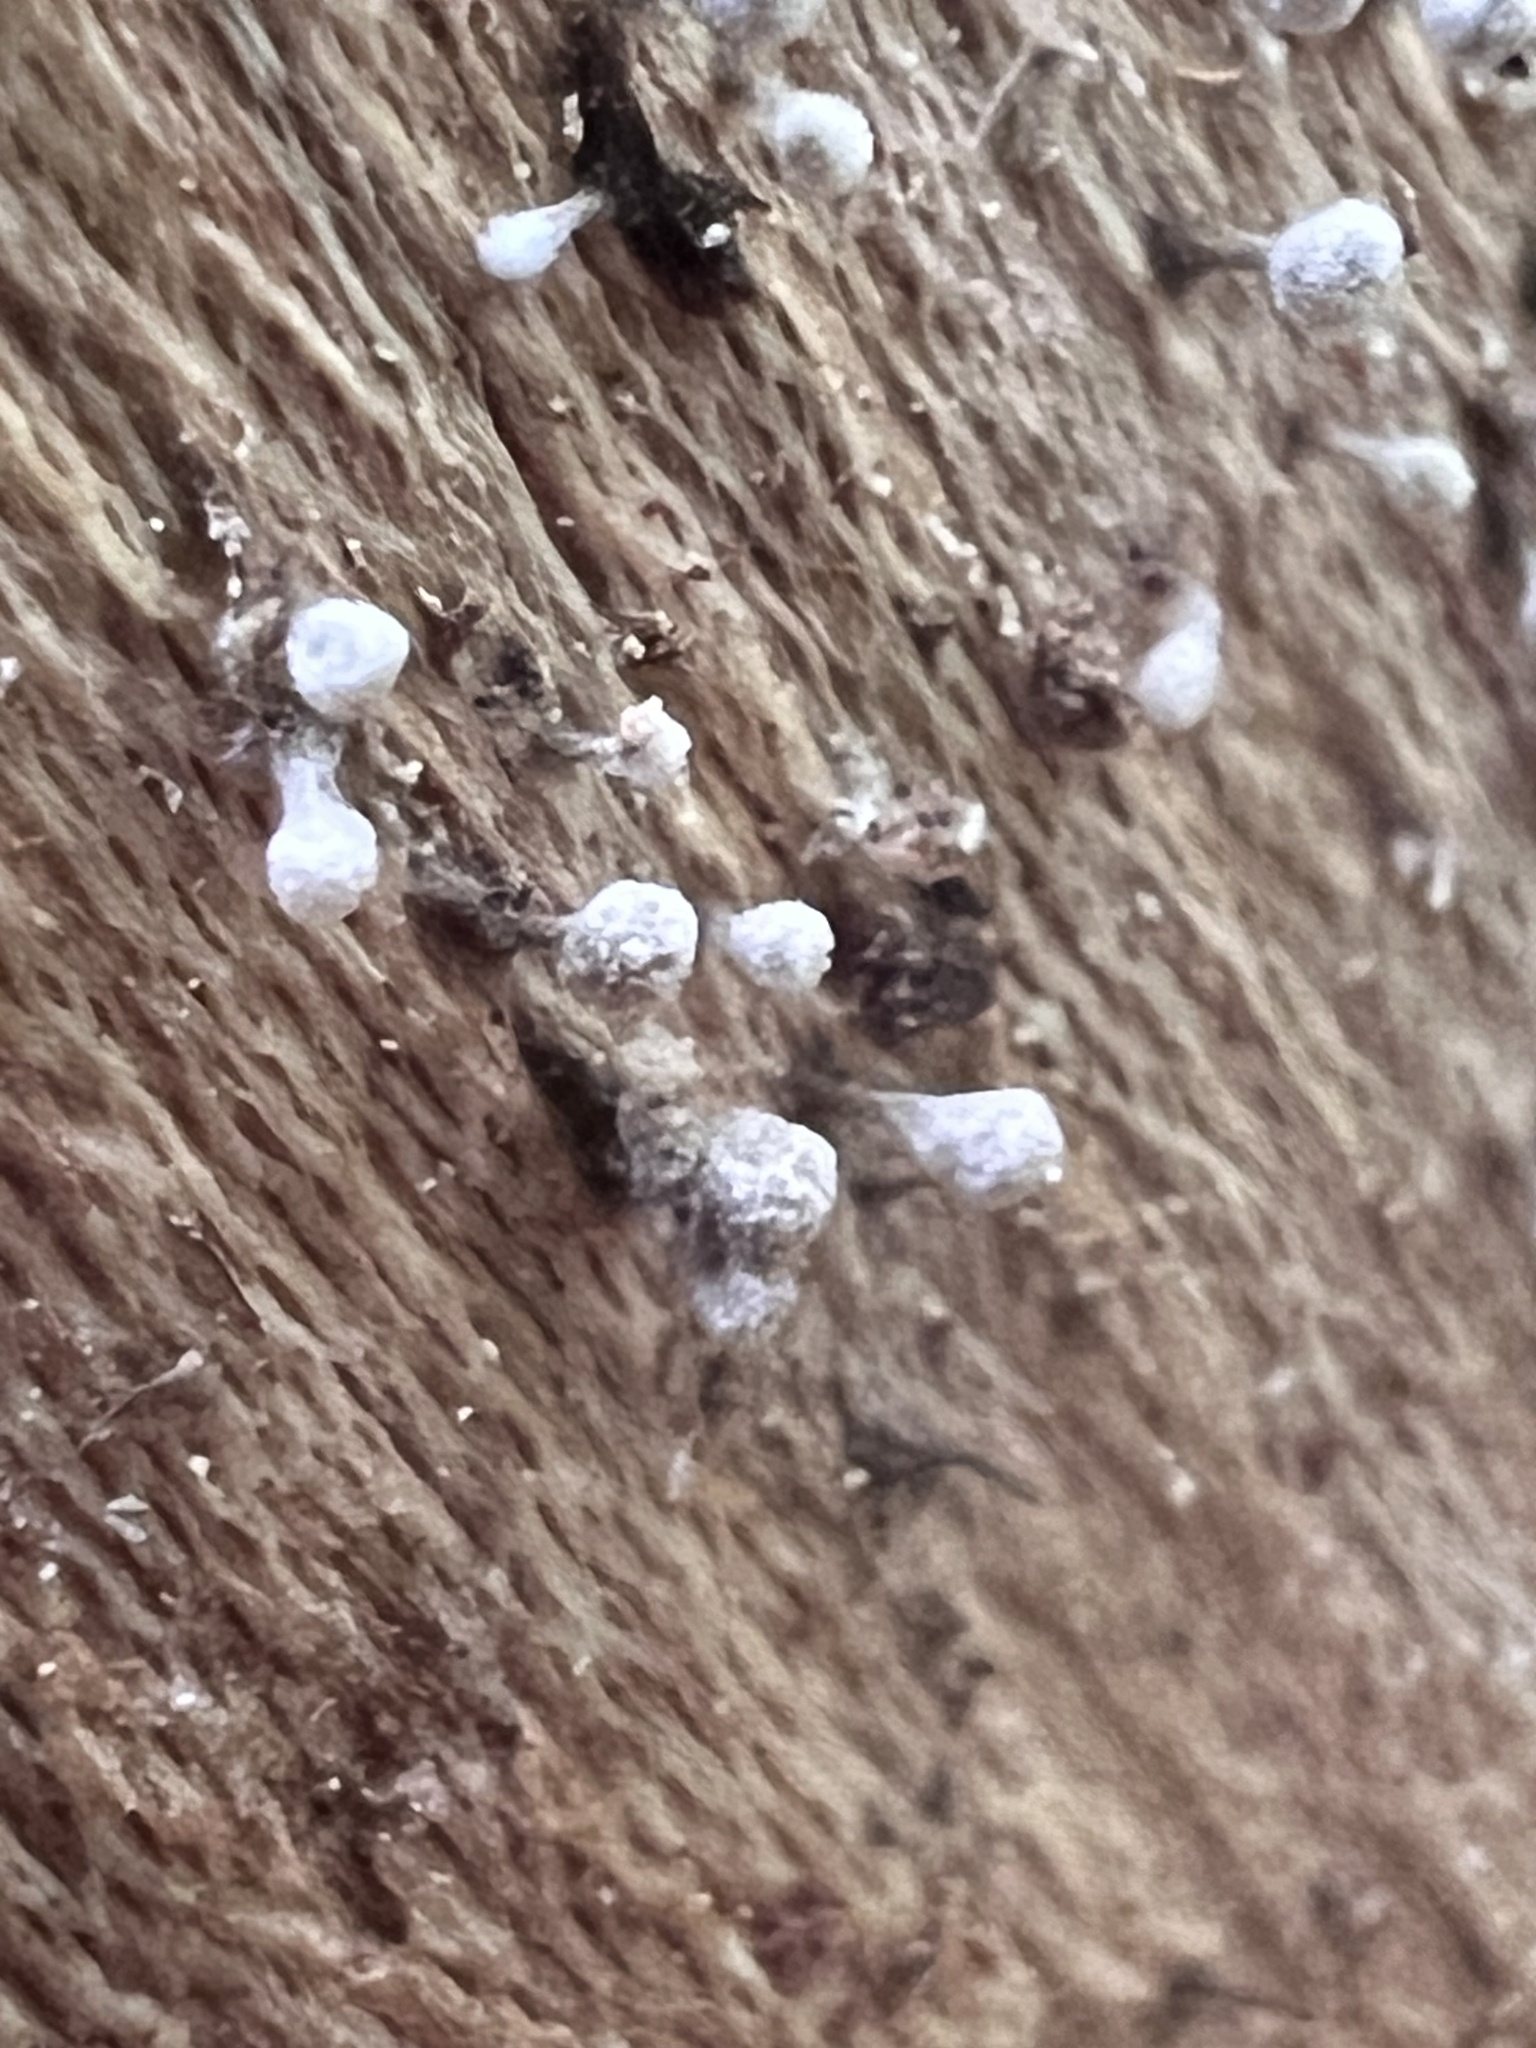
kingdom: Fungi
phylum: Basidiomycota
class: Atractiellomycetes
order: Atractiellales
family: Phleogenaceae
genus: Phleogena
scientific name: Phleogena faginea
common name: Fenugreek stalkball
